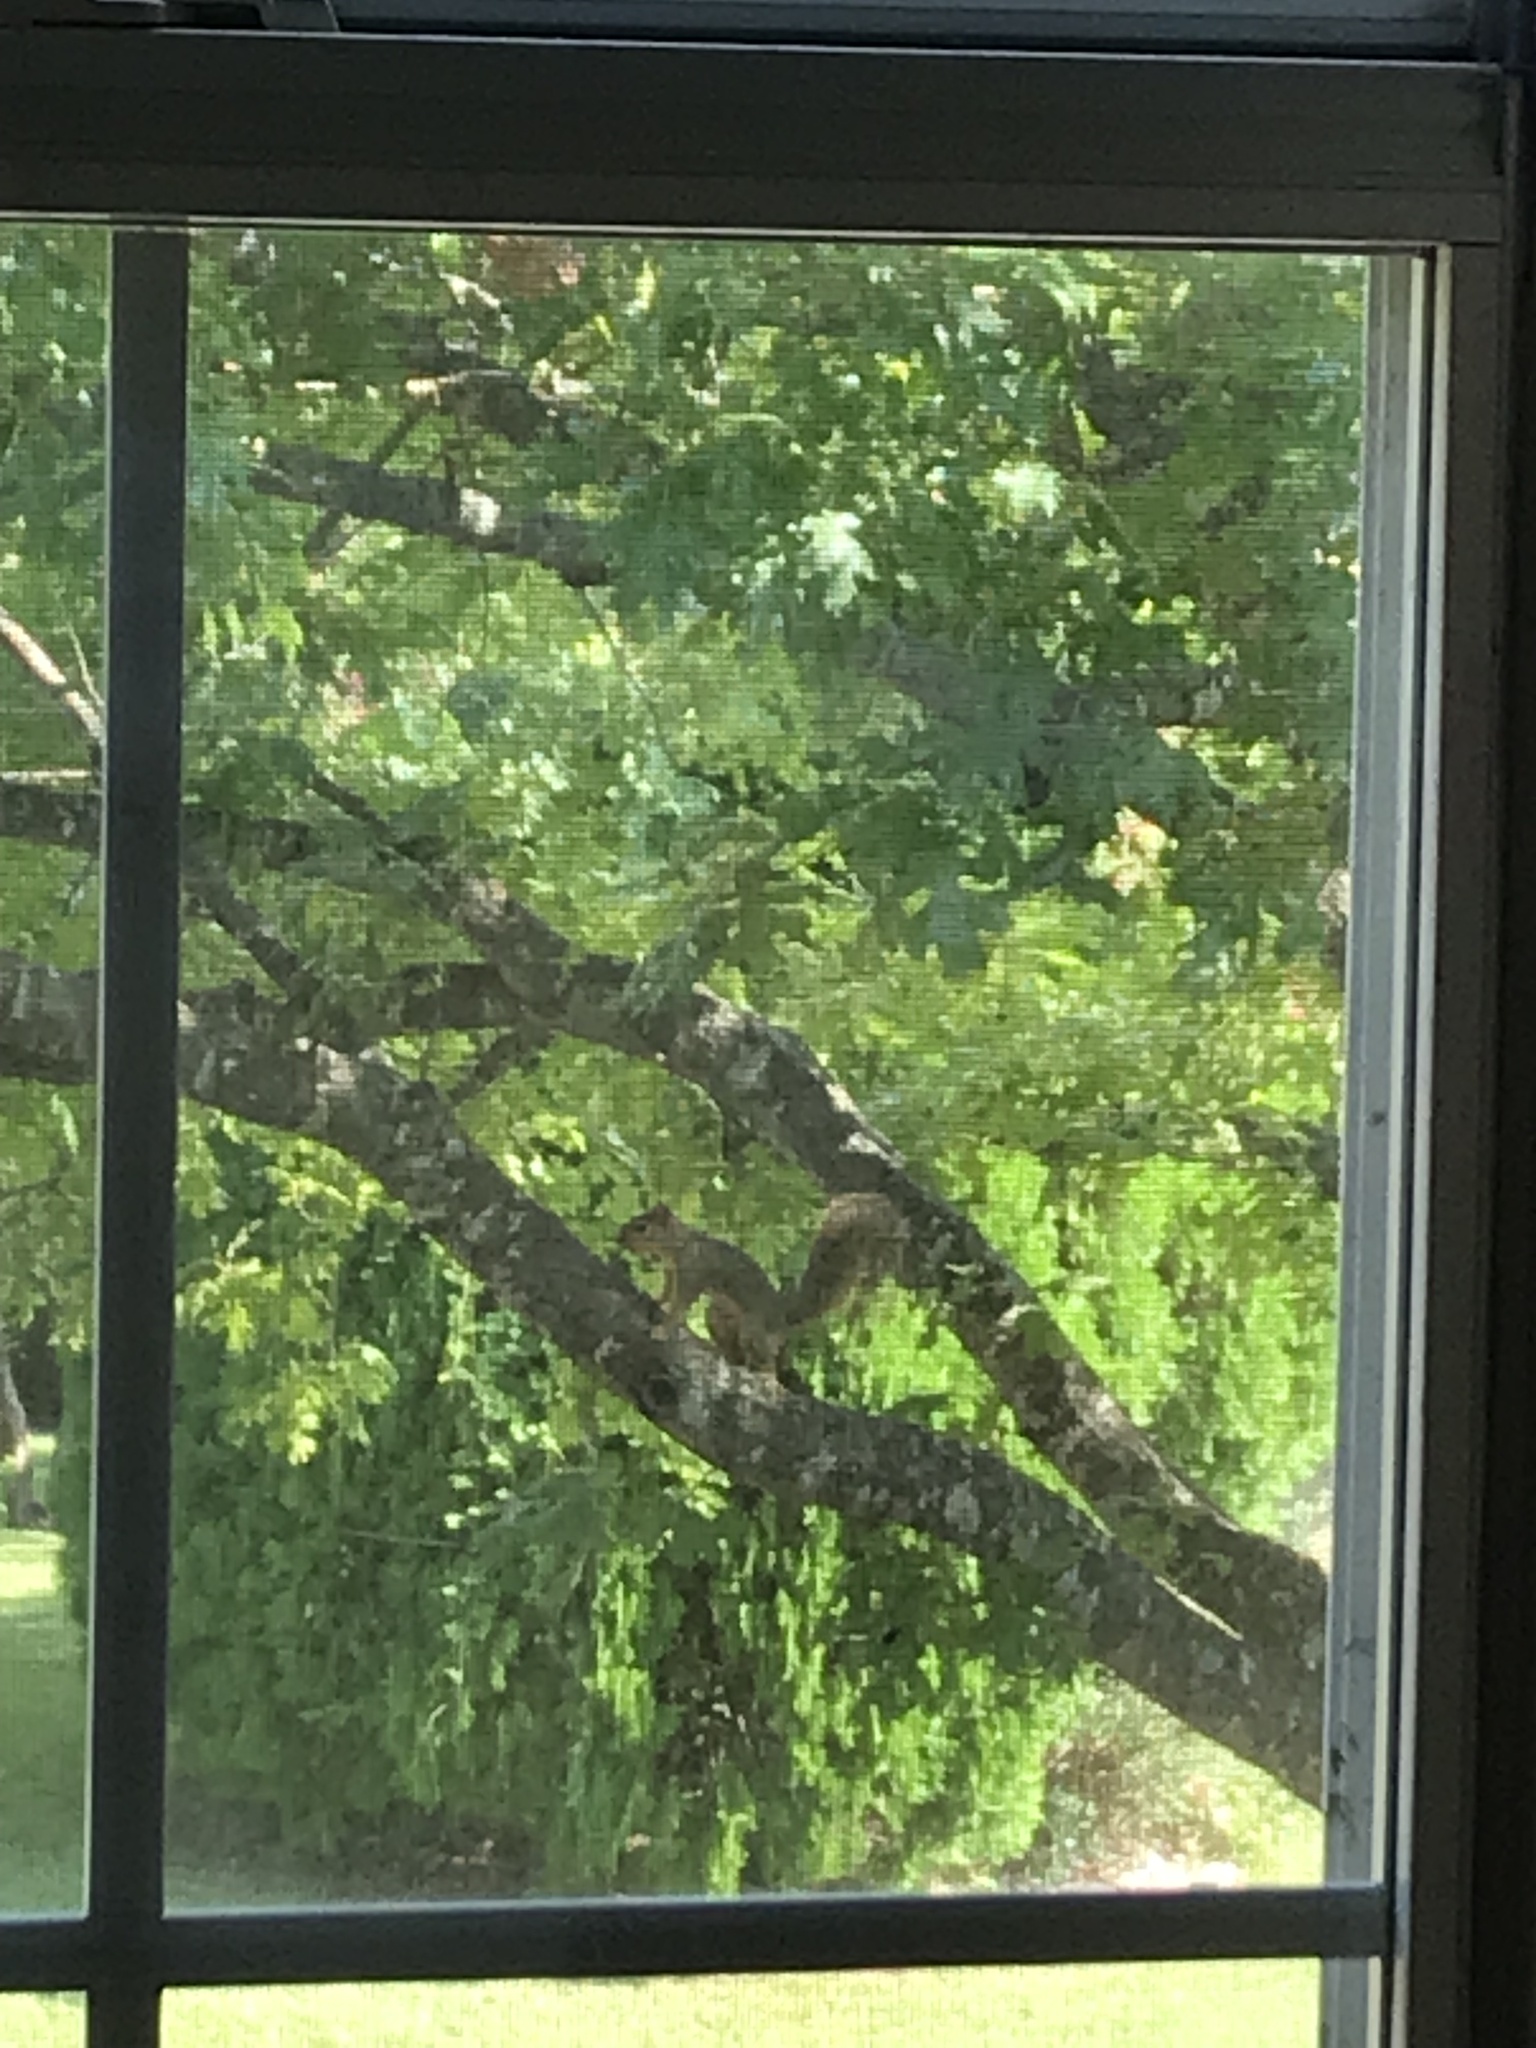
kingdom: Animalia
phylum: Chordata
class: Mammalia
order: Rodentia
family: Sciuridae
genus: Sciurus
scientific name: Sciurus niger
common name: Fox squirrel
